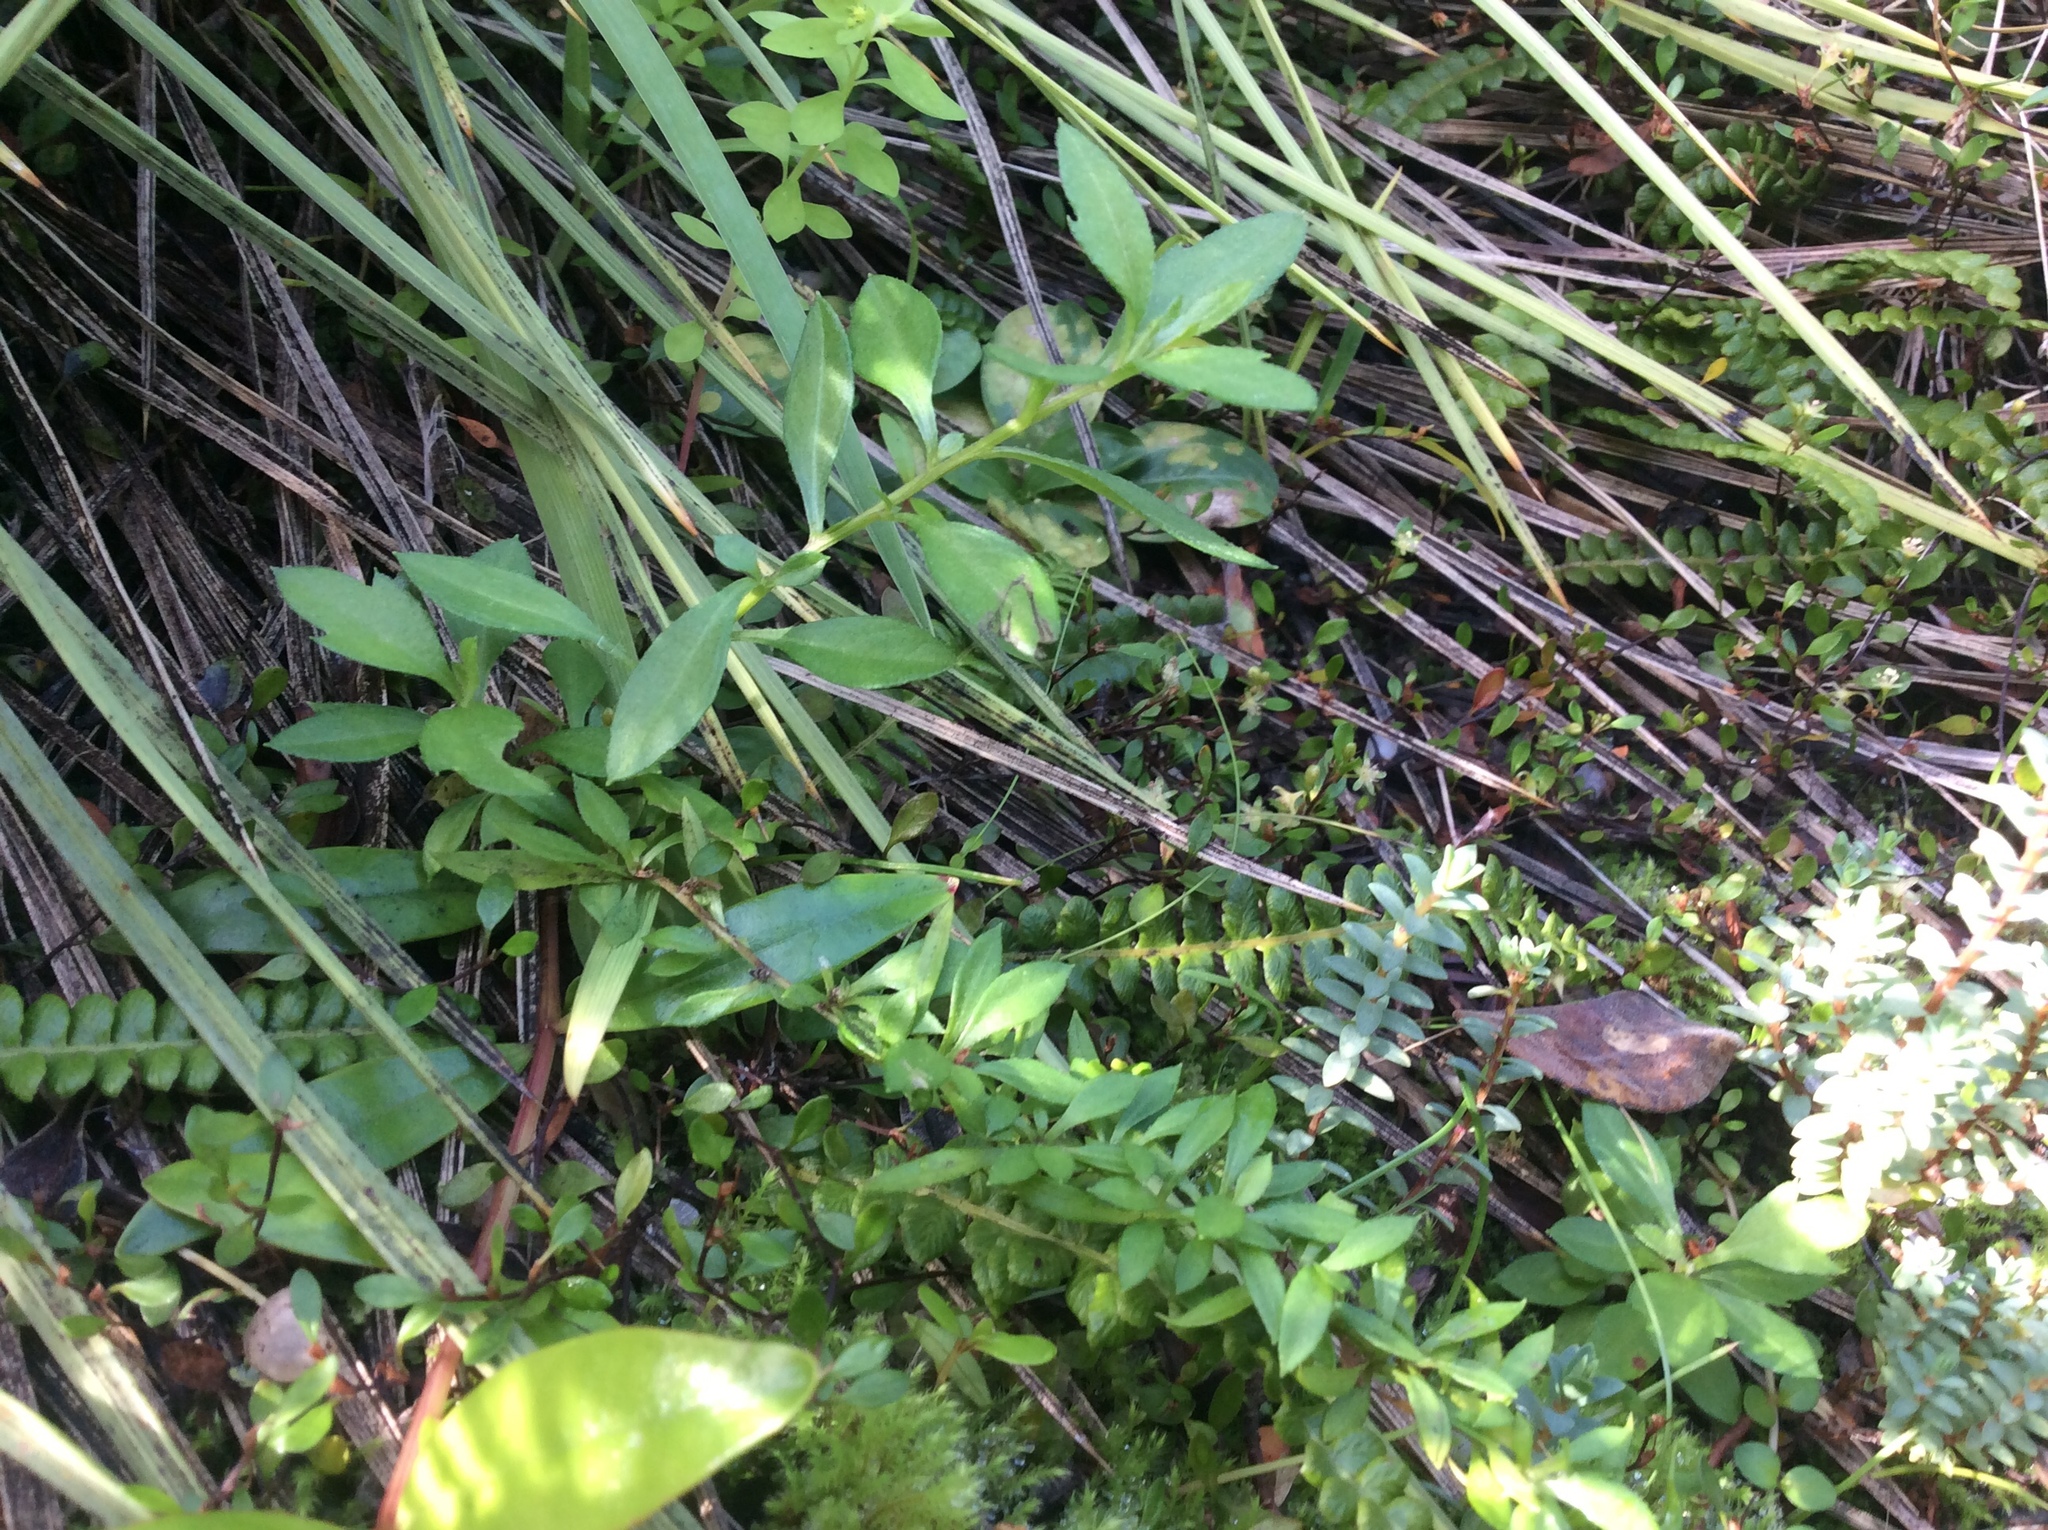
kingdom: Plantae
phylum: Tracheophyta
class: Magnoliopsida
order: Asterales
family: Asteraceae
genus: Erigeron
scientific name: Erigeron karvinskianus
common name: Mexican fleabane
